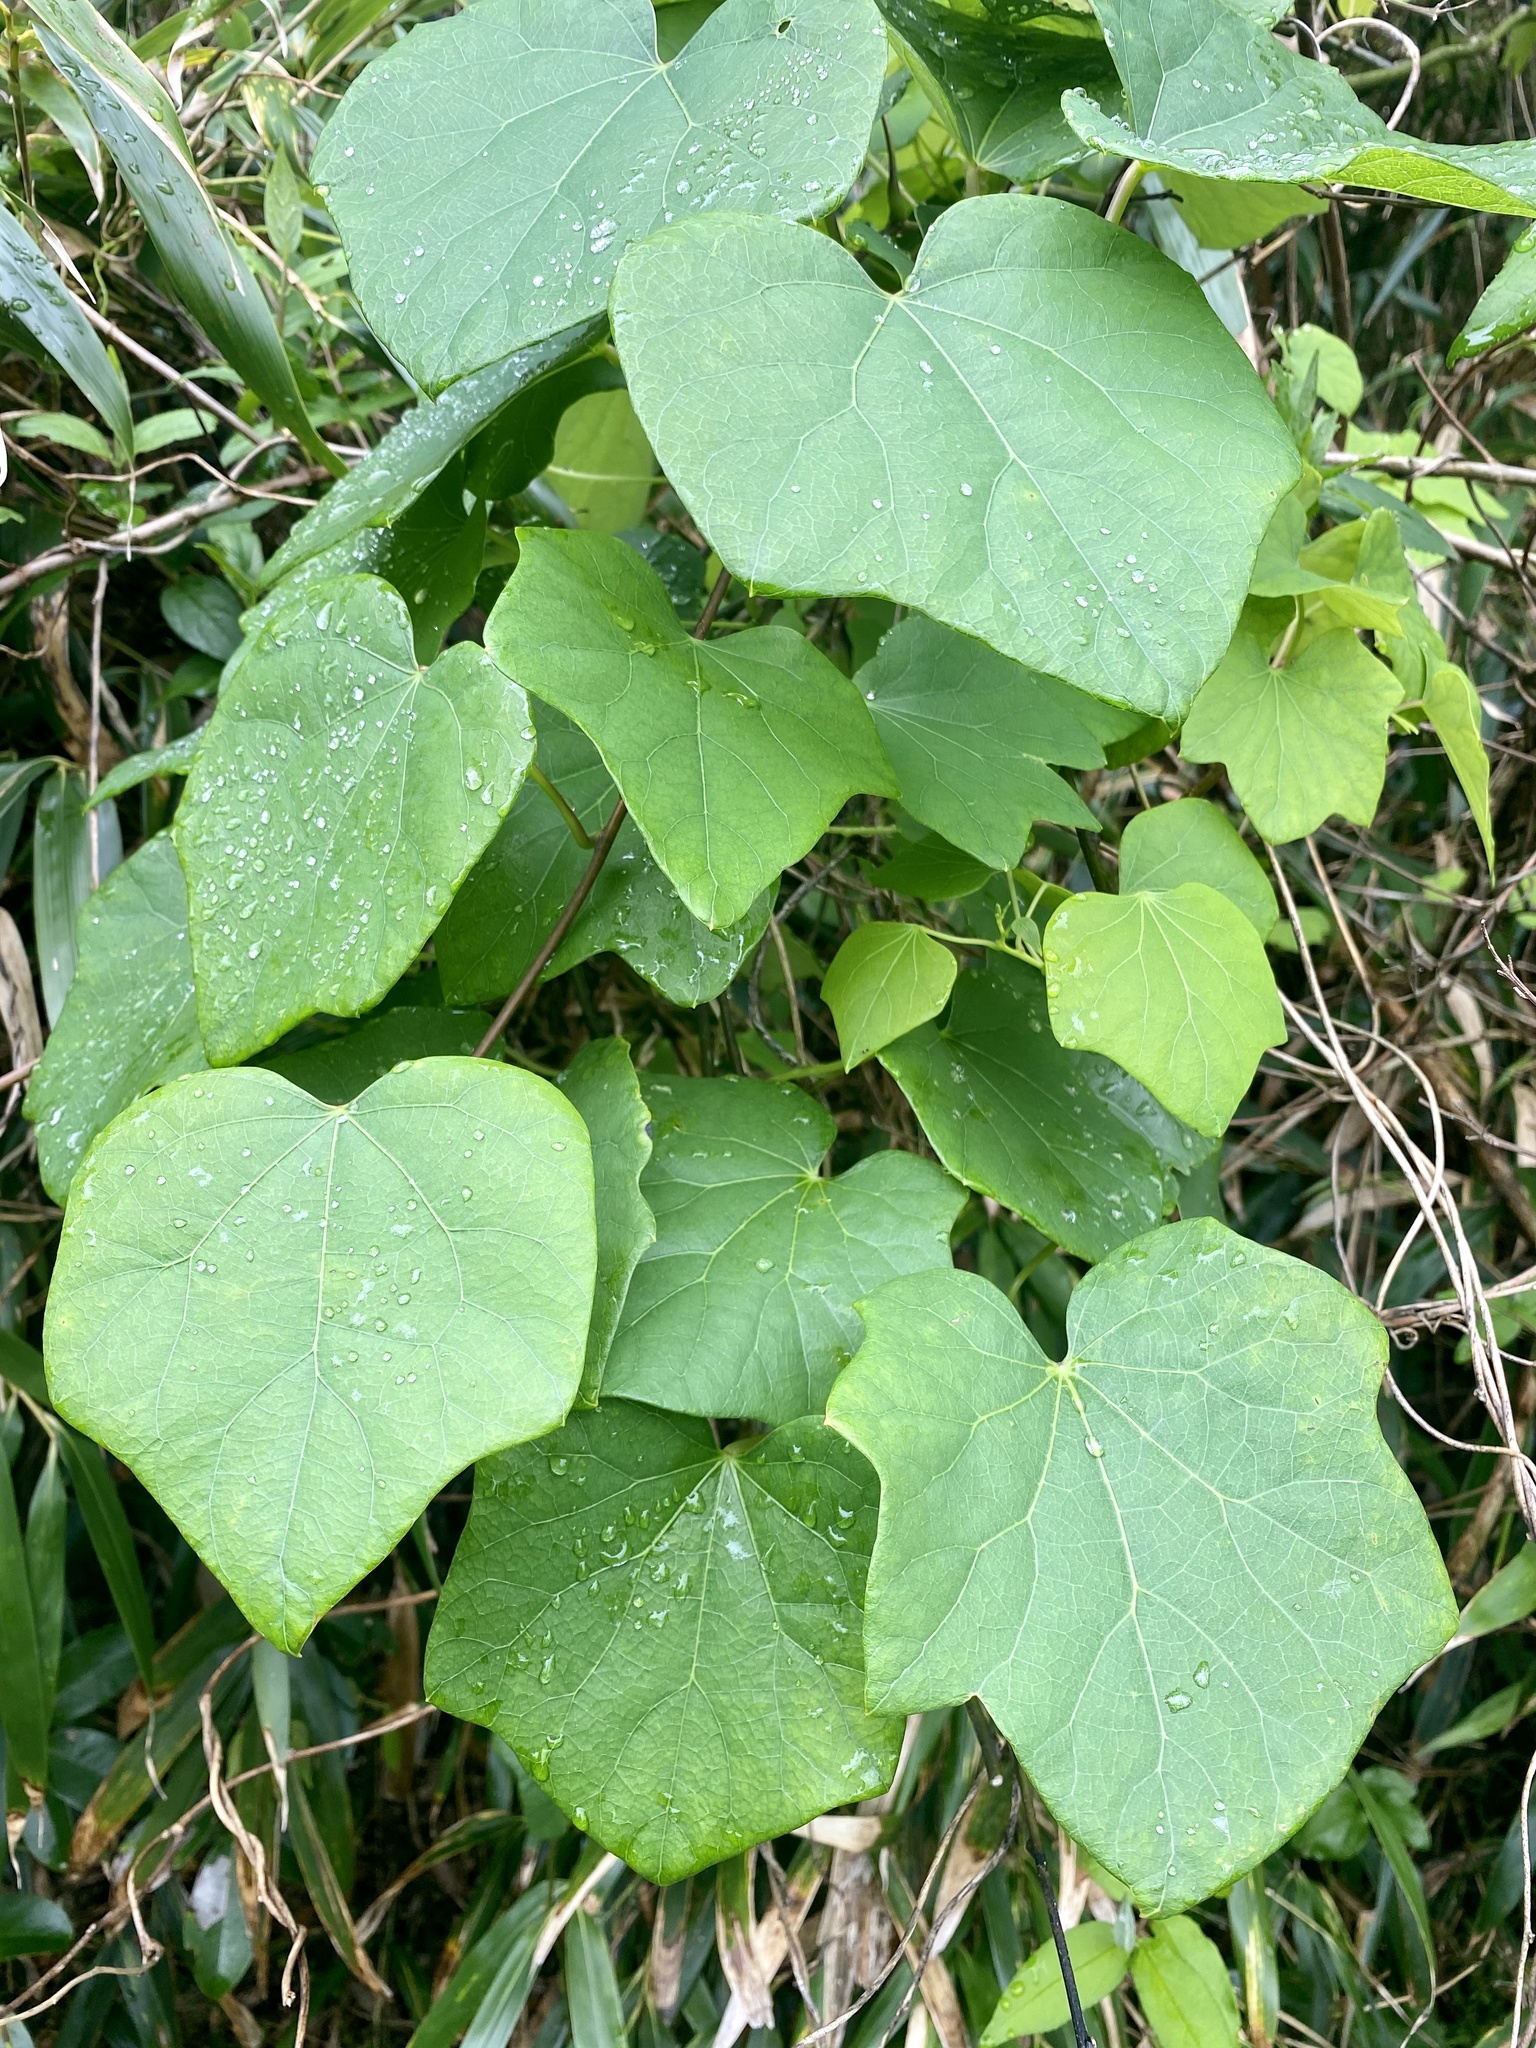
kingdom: Plantae
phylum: Tracheophyta
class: Magnoliopsida
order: Ranunculales
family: Menispermaceae
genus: Sinomenium
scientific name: Sinomenium acutum
